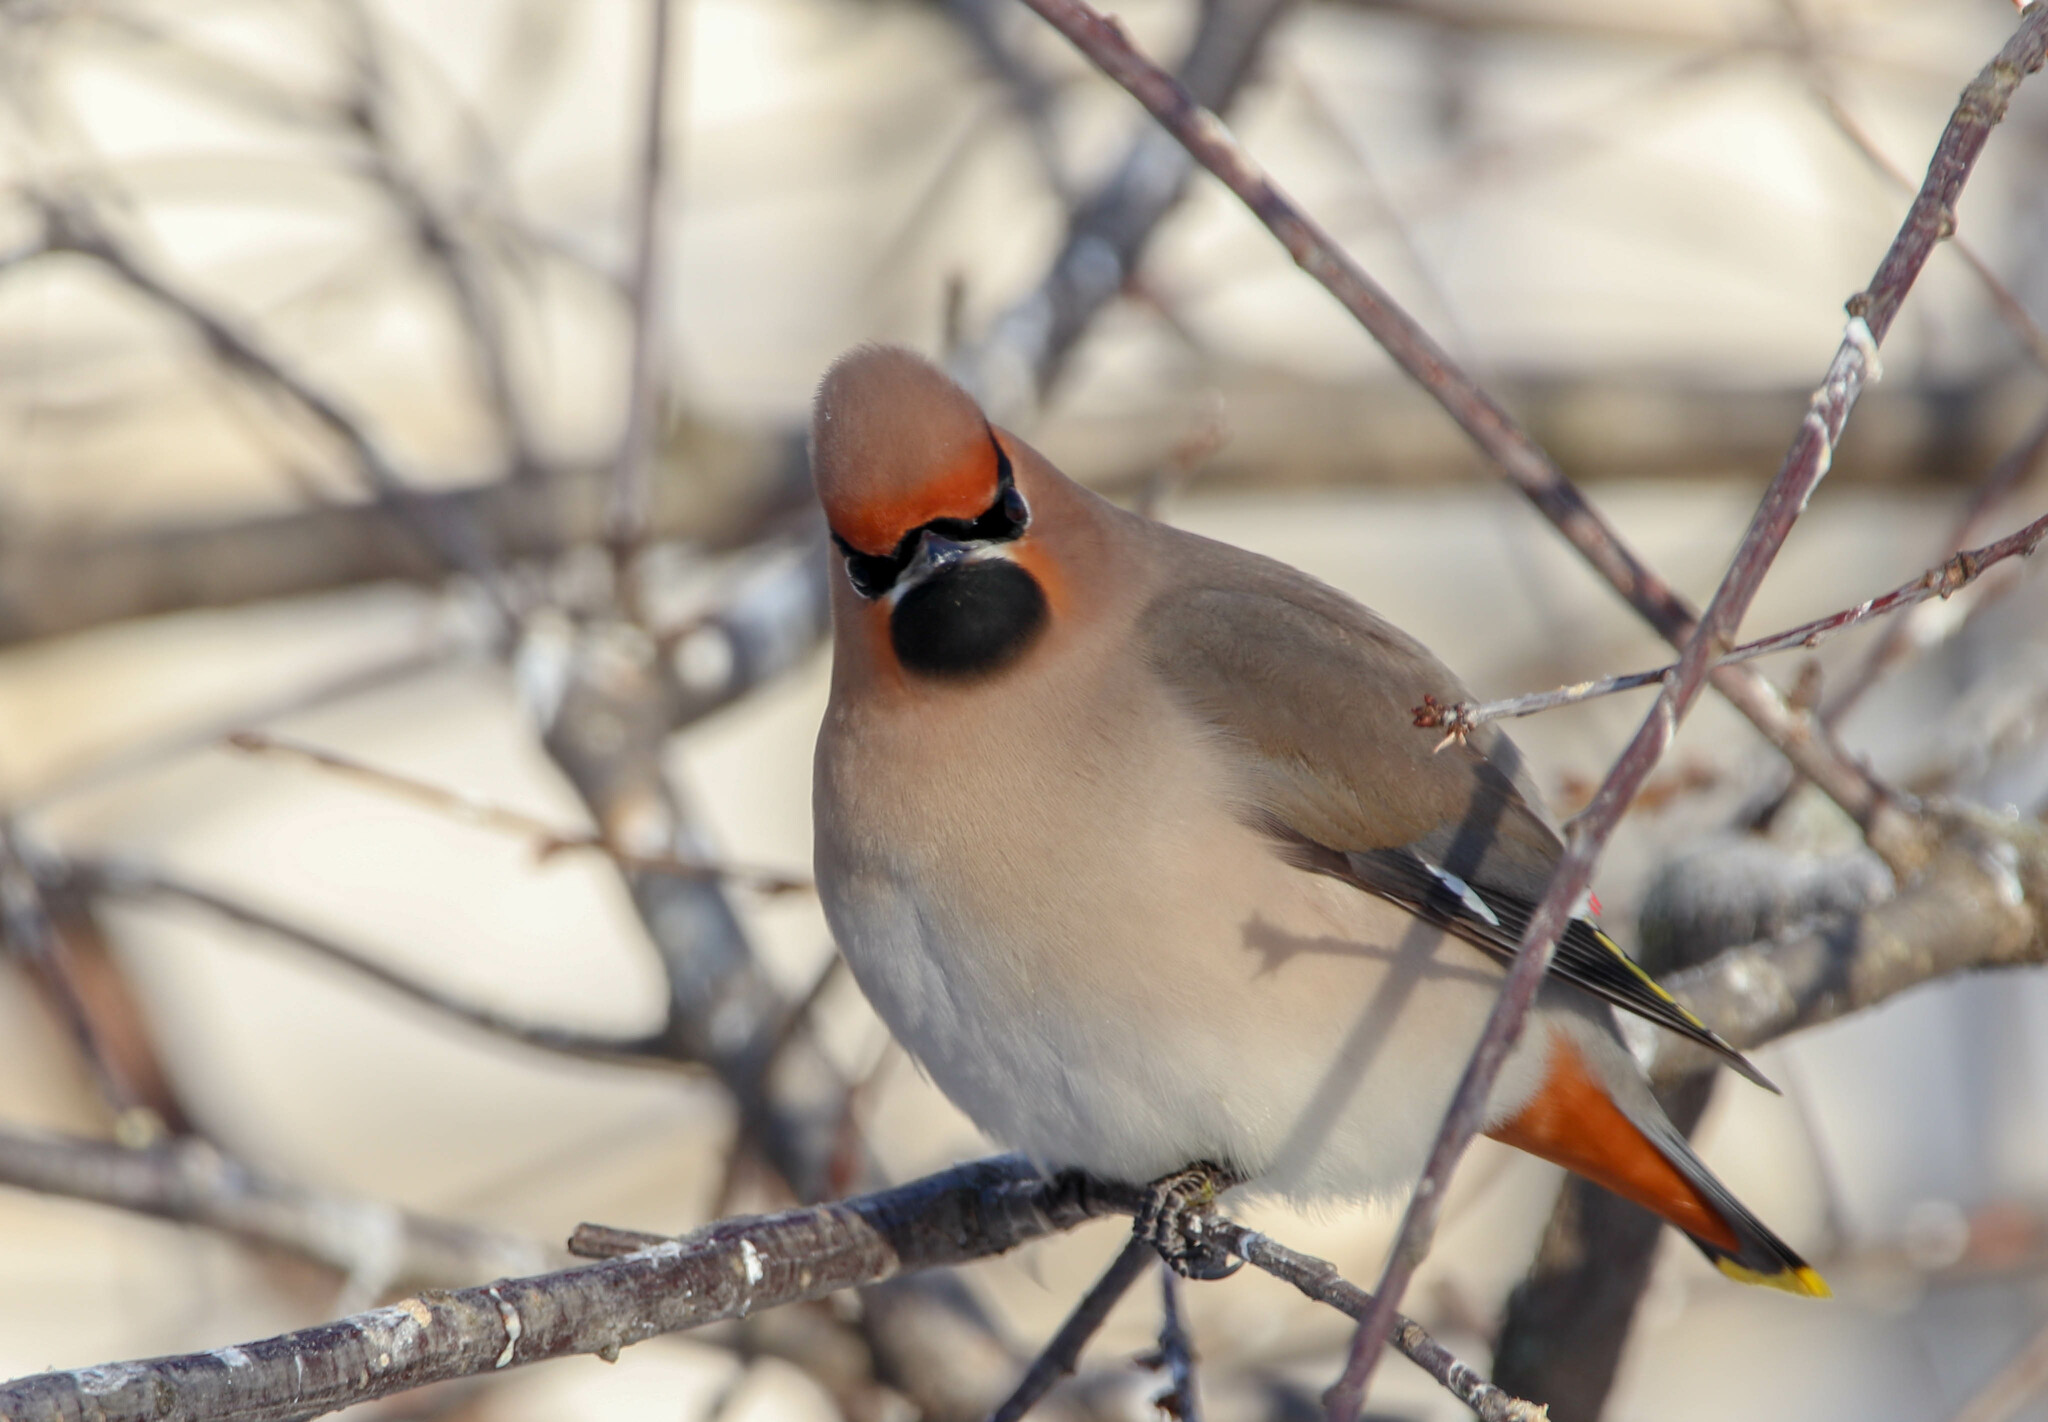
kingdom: Animalia
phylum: Chordata
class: Aves
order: Passeriformes
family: Bombycillidae
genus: Bombycilla
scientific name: Bombycilla garrulus
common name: Bohemian waxwing
